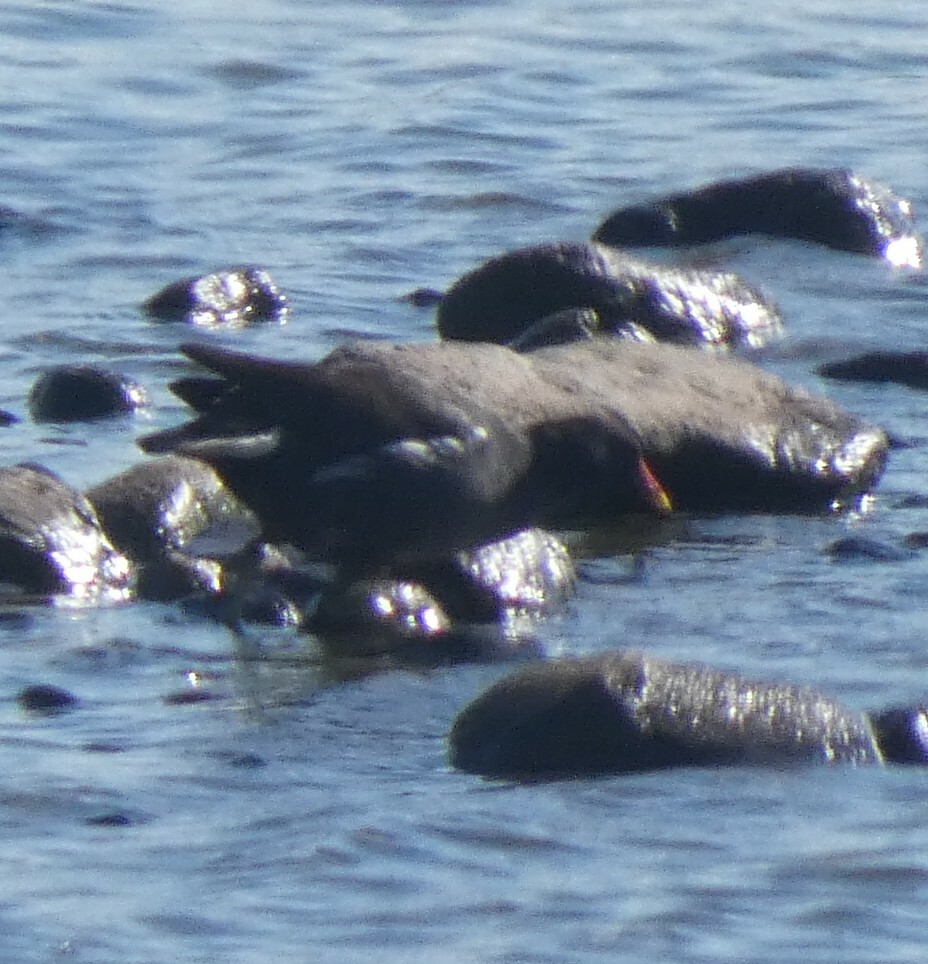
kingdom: Animalia
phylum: Chordata
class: Aves
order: Gruiformes
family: Rallidae
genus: Gallinula
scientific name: Gallinula chloropus
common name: Common moorhen
